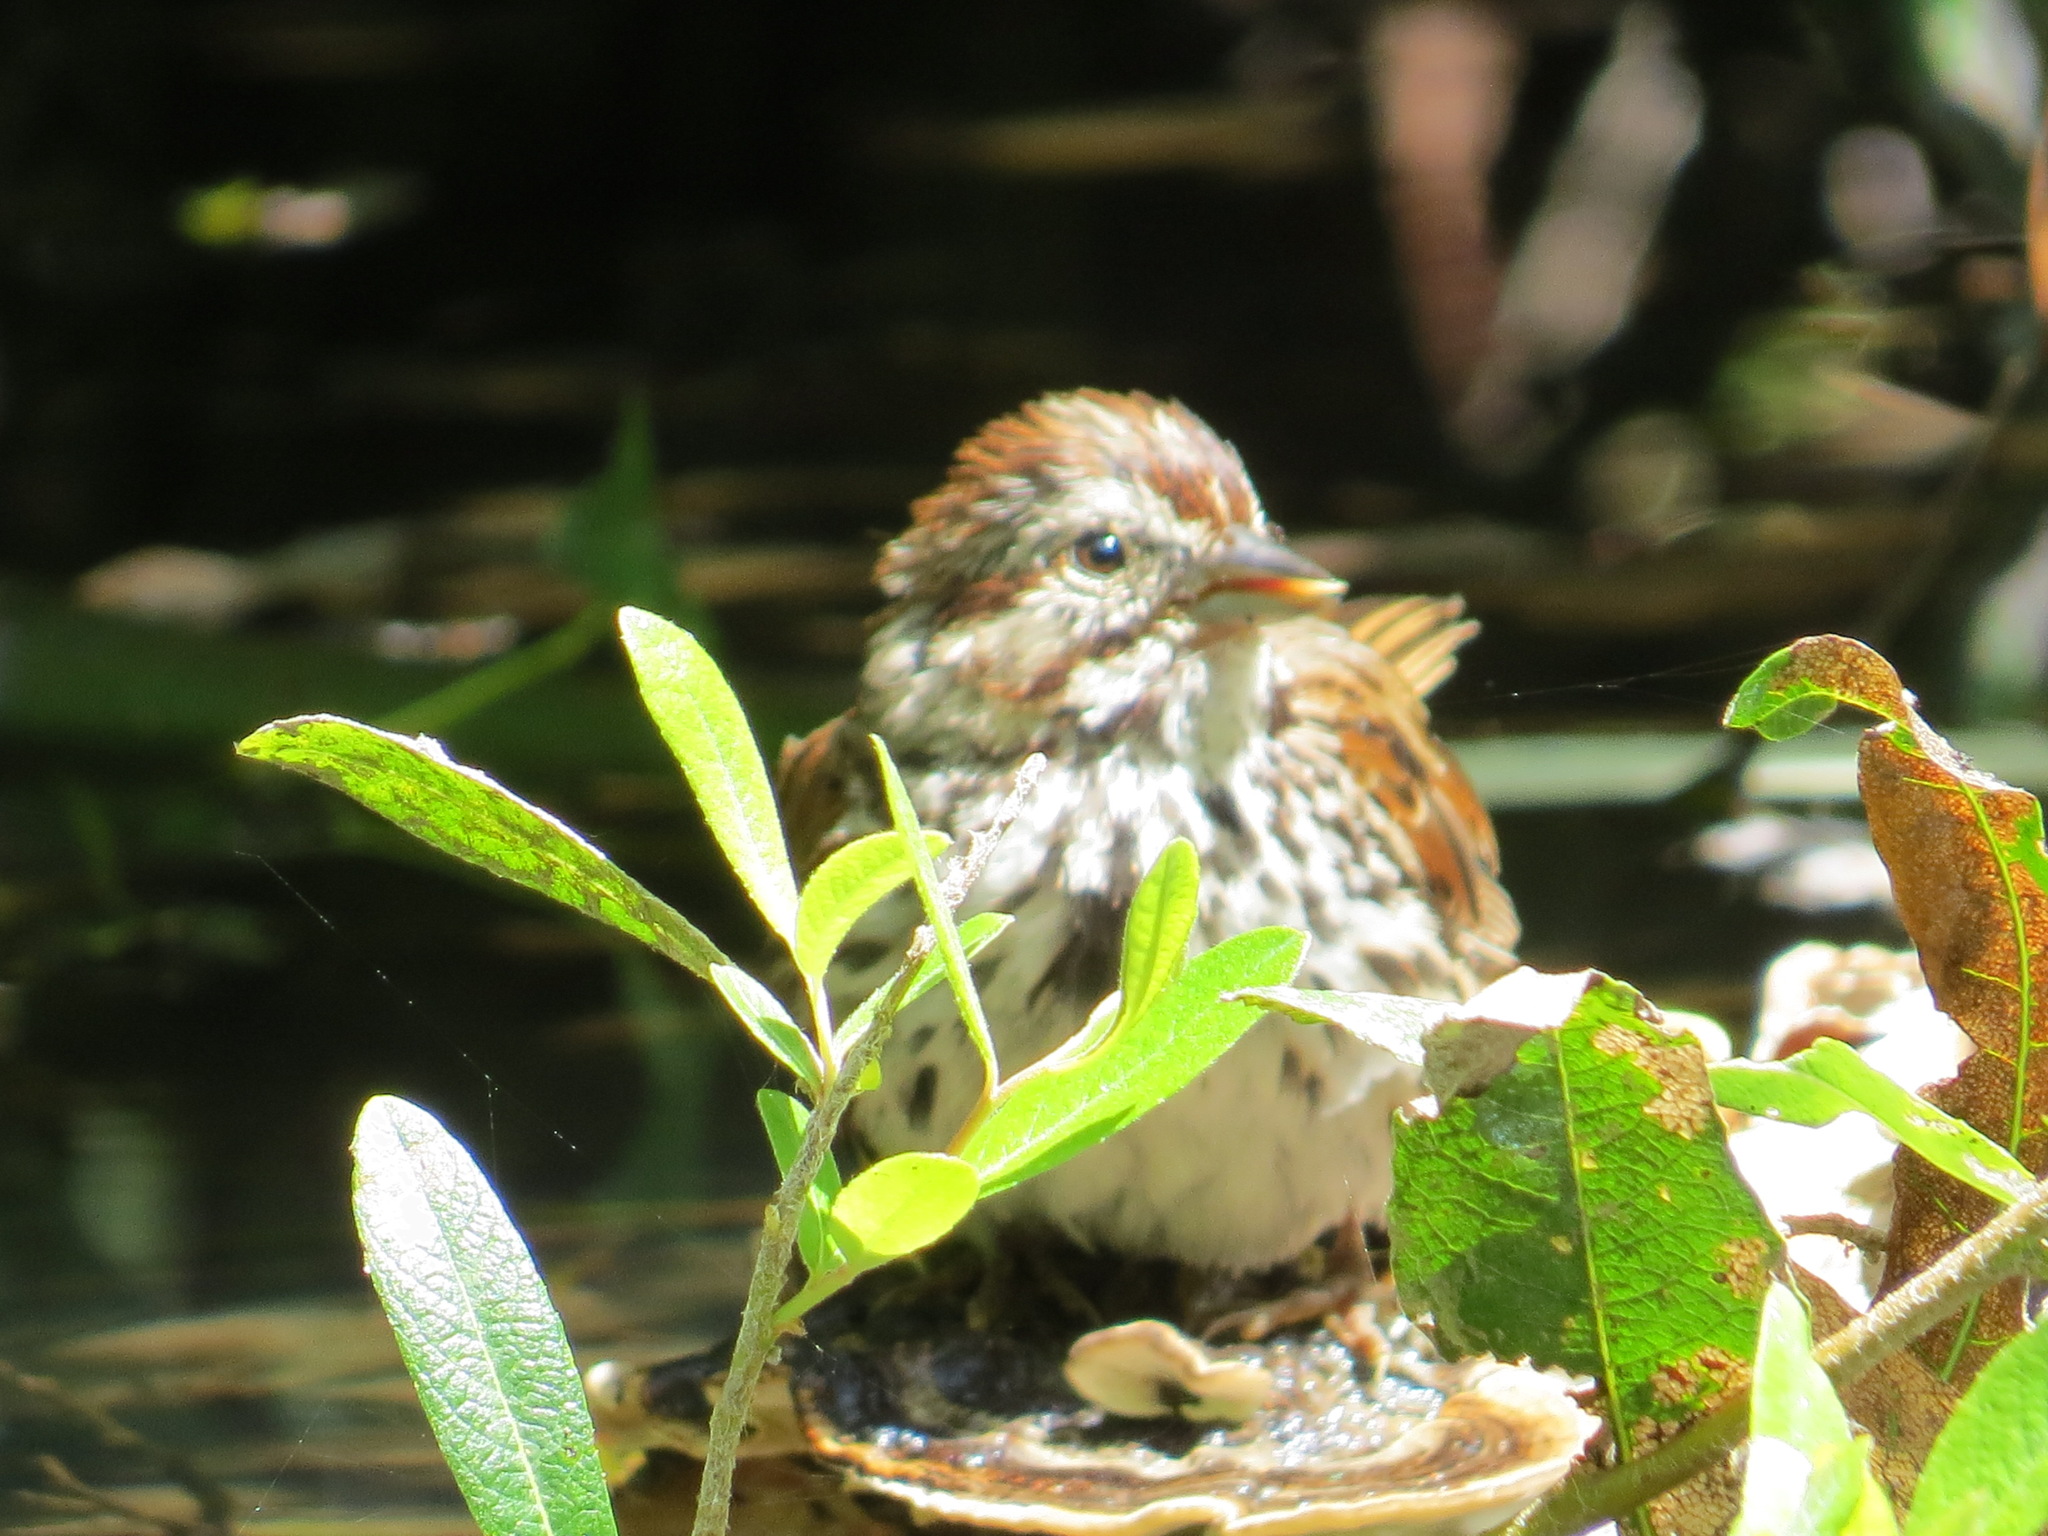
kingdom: Animalia
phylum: Chordata
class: Aves
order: Passeriformes
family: Passerellidae
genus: Melospiza
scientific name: Melospiza melodia
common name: Song sparrow
